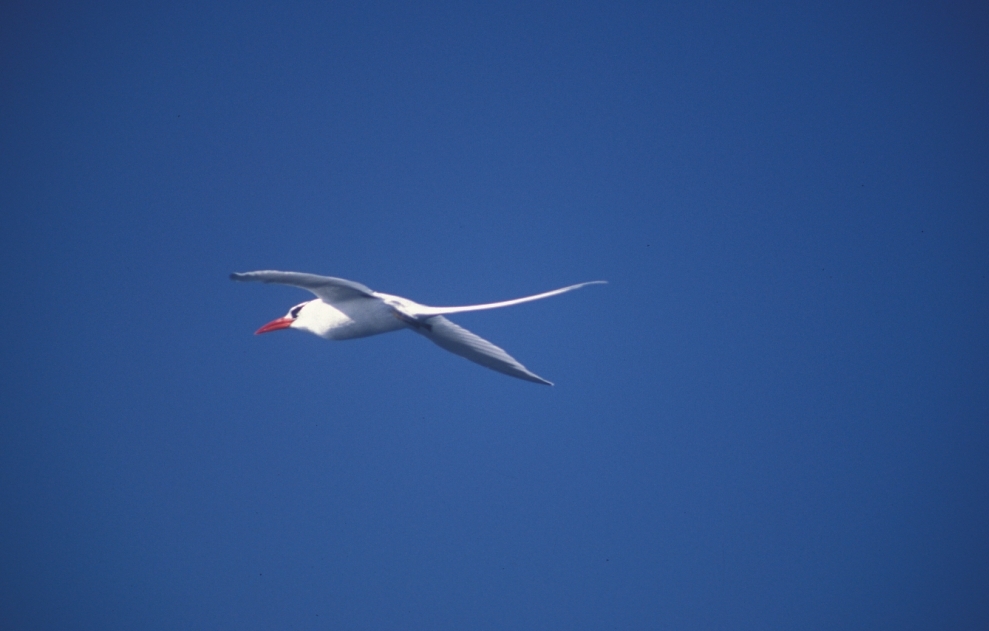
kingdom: Animalia
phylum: Chordata
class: Aves
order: Phaethontiformes
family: Phaethontidae
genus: Phaethon
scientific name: Phaethon aethereus
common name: Red-billed tropicbird
